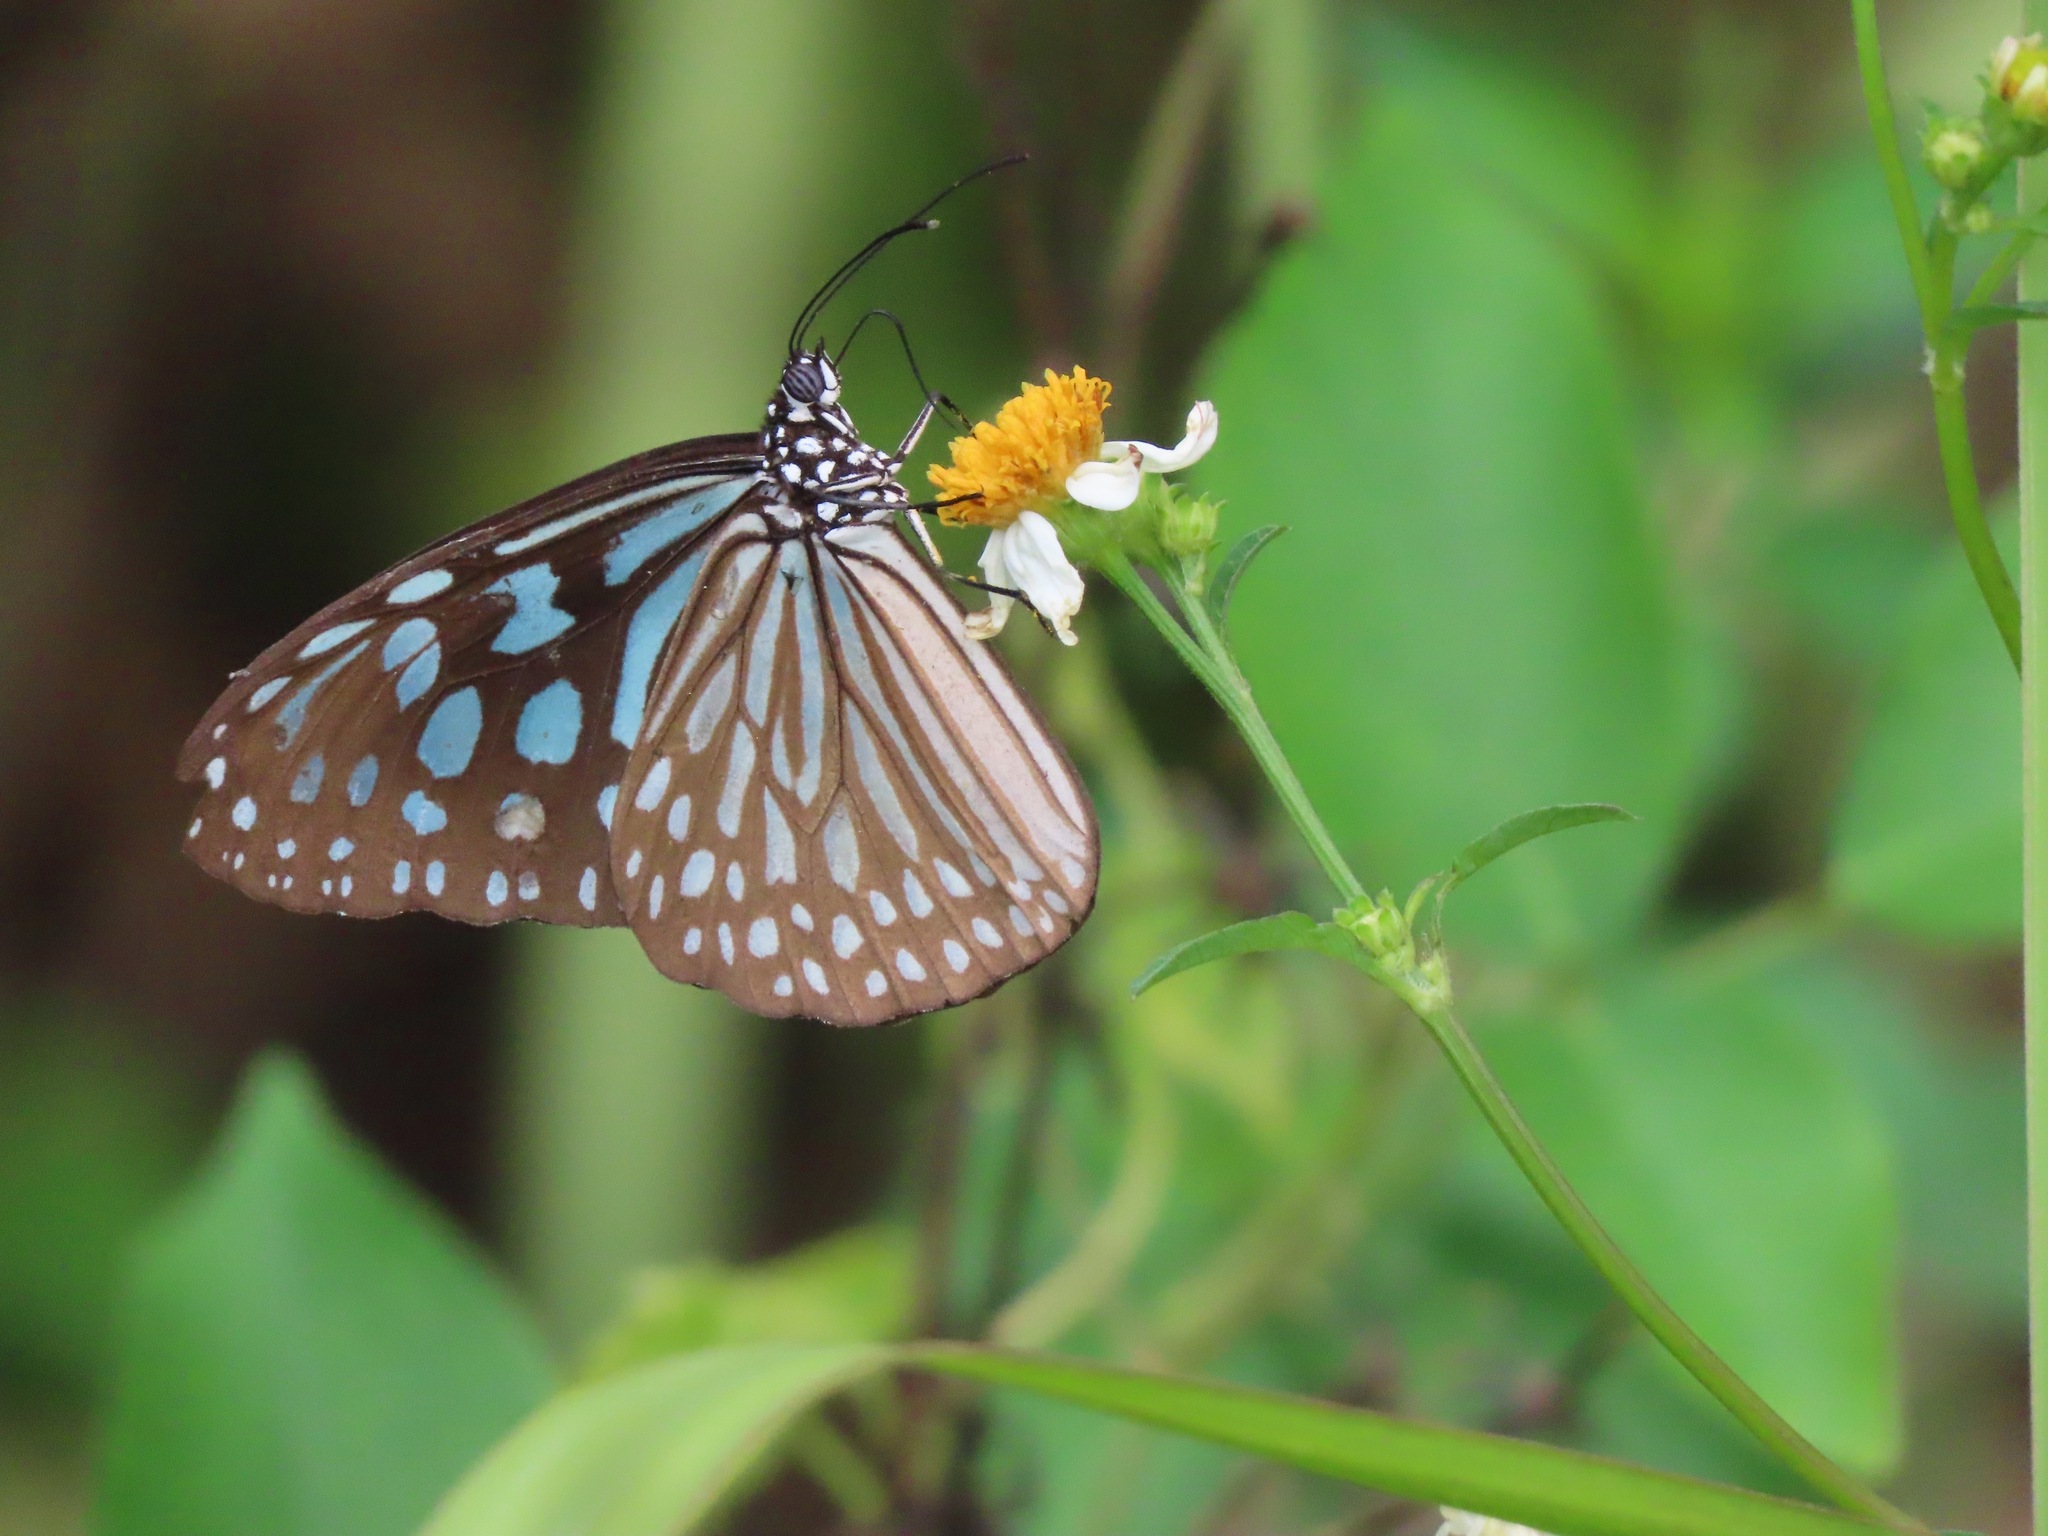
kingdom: Animalia
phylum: Arthropoda
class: Insecta
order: Lepidoptera
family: Nymphalidae
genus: Ideopsis
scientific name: Ideopsis similis
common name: Ceylon blue glassy tiger
